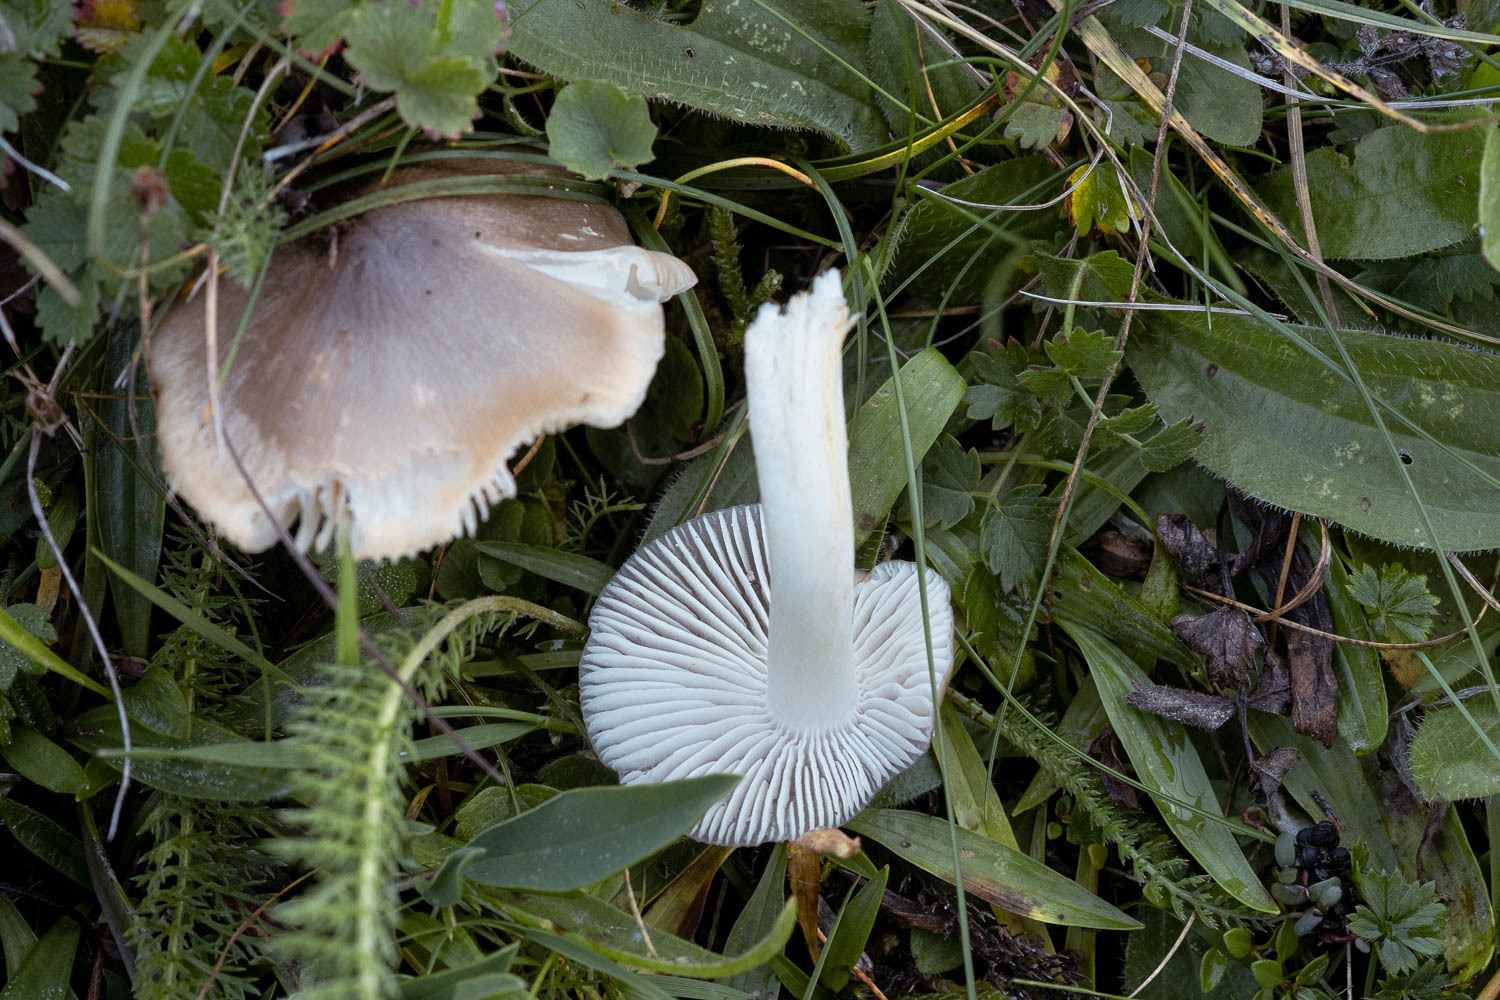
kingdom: Fungi
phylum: Basidiomycota
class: Agaricomycetes
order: Agaricales
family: Hygrophoraceae
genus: Cuphophyllus
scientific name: Cuphophyllus fornicatus
